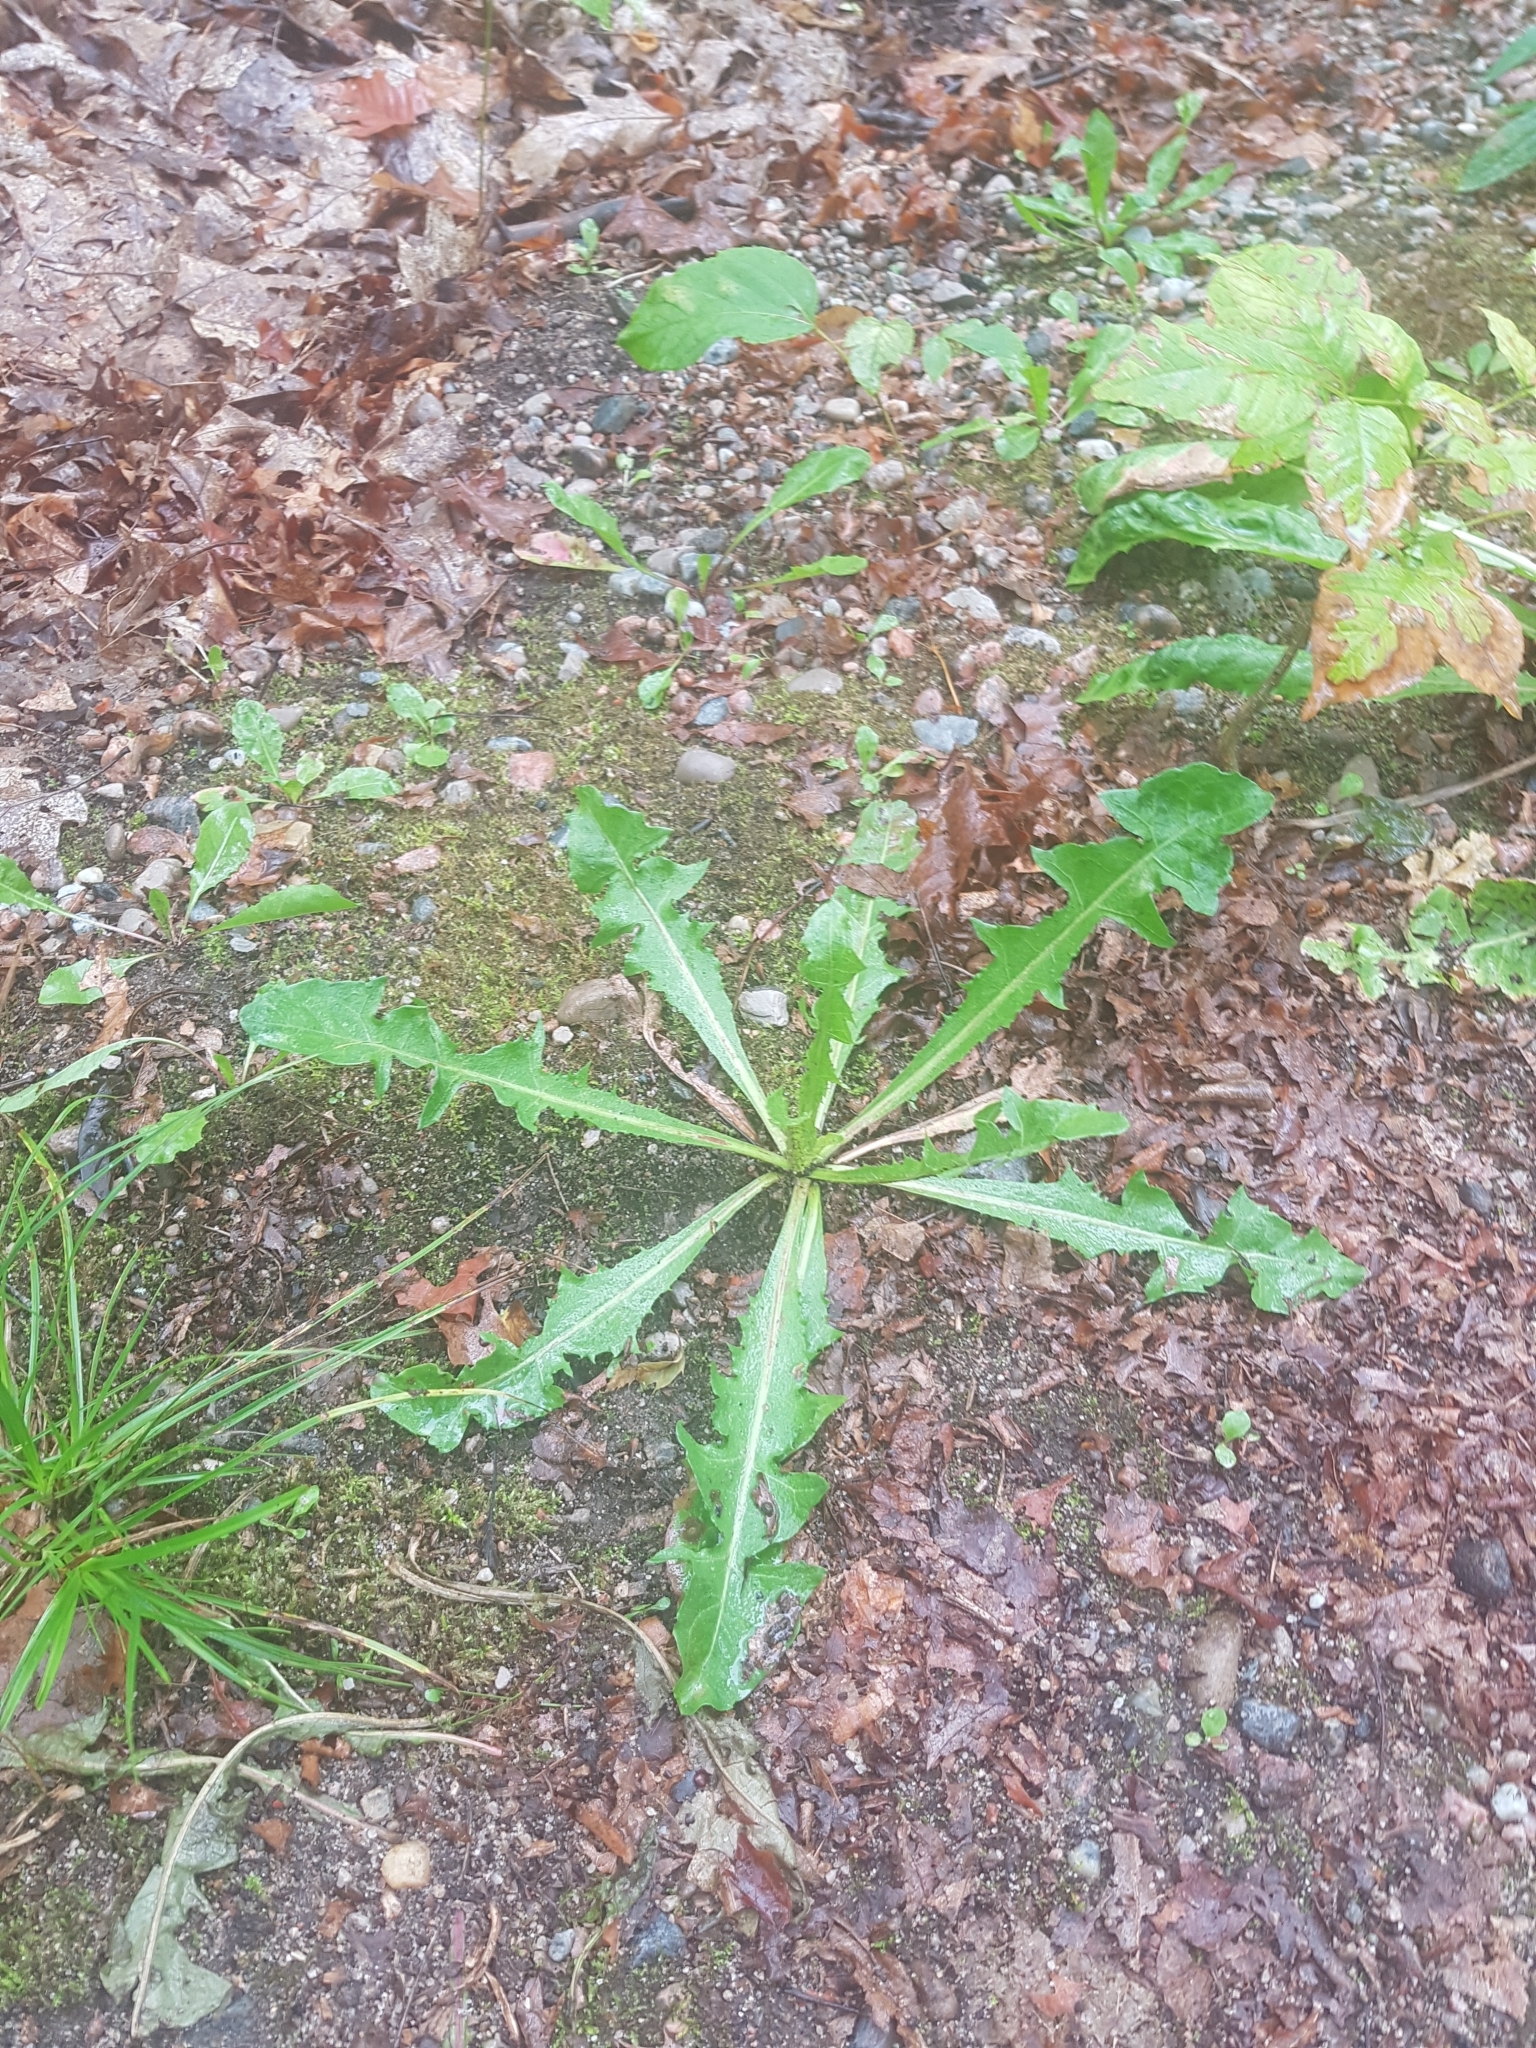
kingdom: Plantae
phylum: Tracheophyta
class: Magnoliopsida
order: Asterales
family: Asteraceae
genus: Taraxacum
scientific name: Taraxacum officinale
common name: Common dandelion
